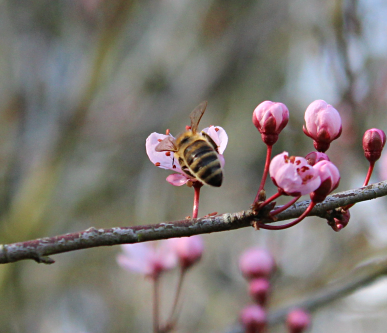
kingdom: Animalia
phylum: Arthropoda
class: Insecta
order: Hymenoptera
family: Apidae
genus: Apis
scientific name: Apis mellifera
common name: Honey bee
